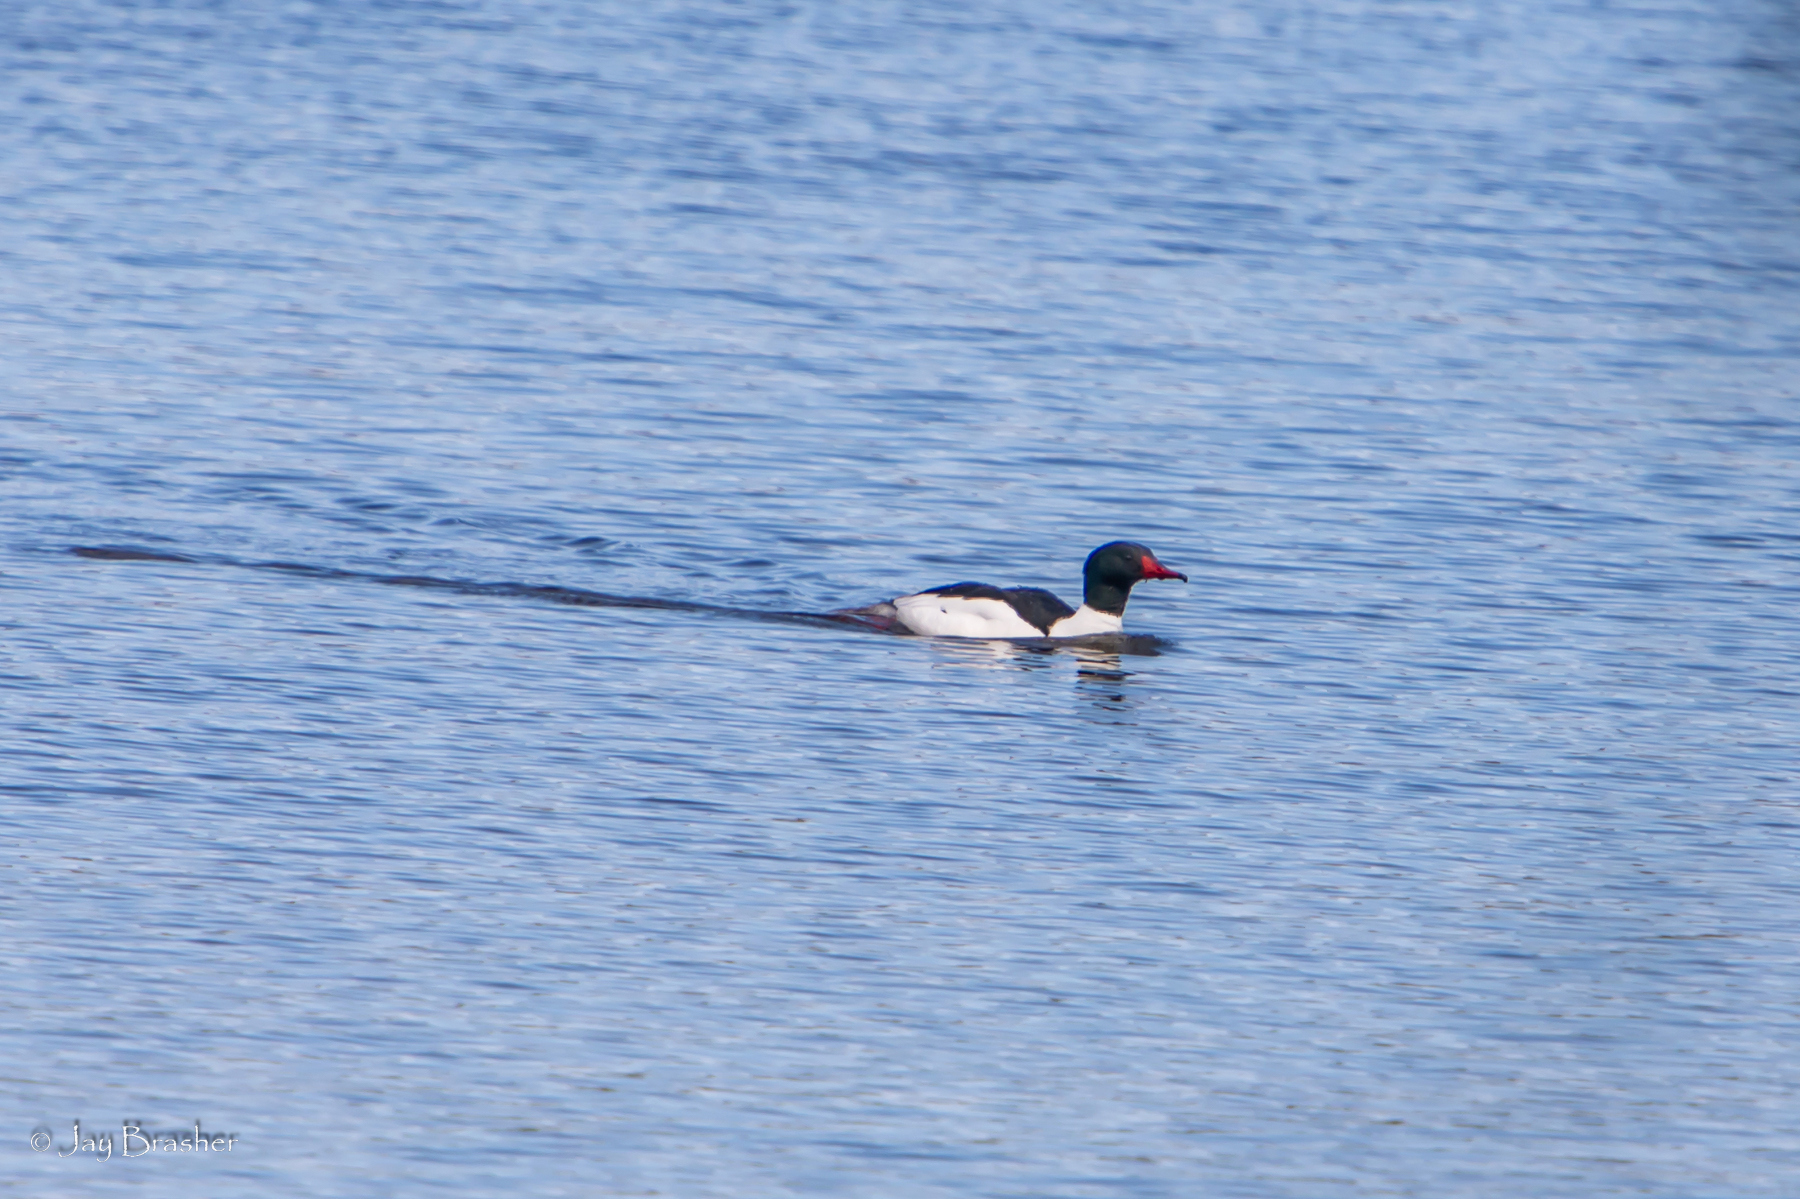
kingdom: Animalia
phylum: Chordata
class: Aves
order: Anseriformes
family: Anatidae
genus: Mergus
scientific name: Mergus merganser
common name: Common merganser
